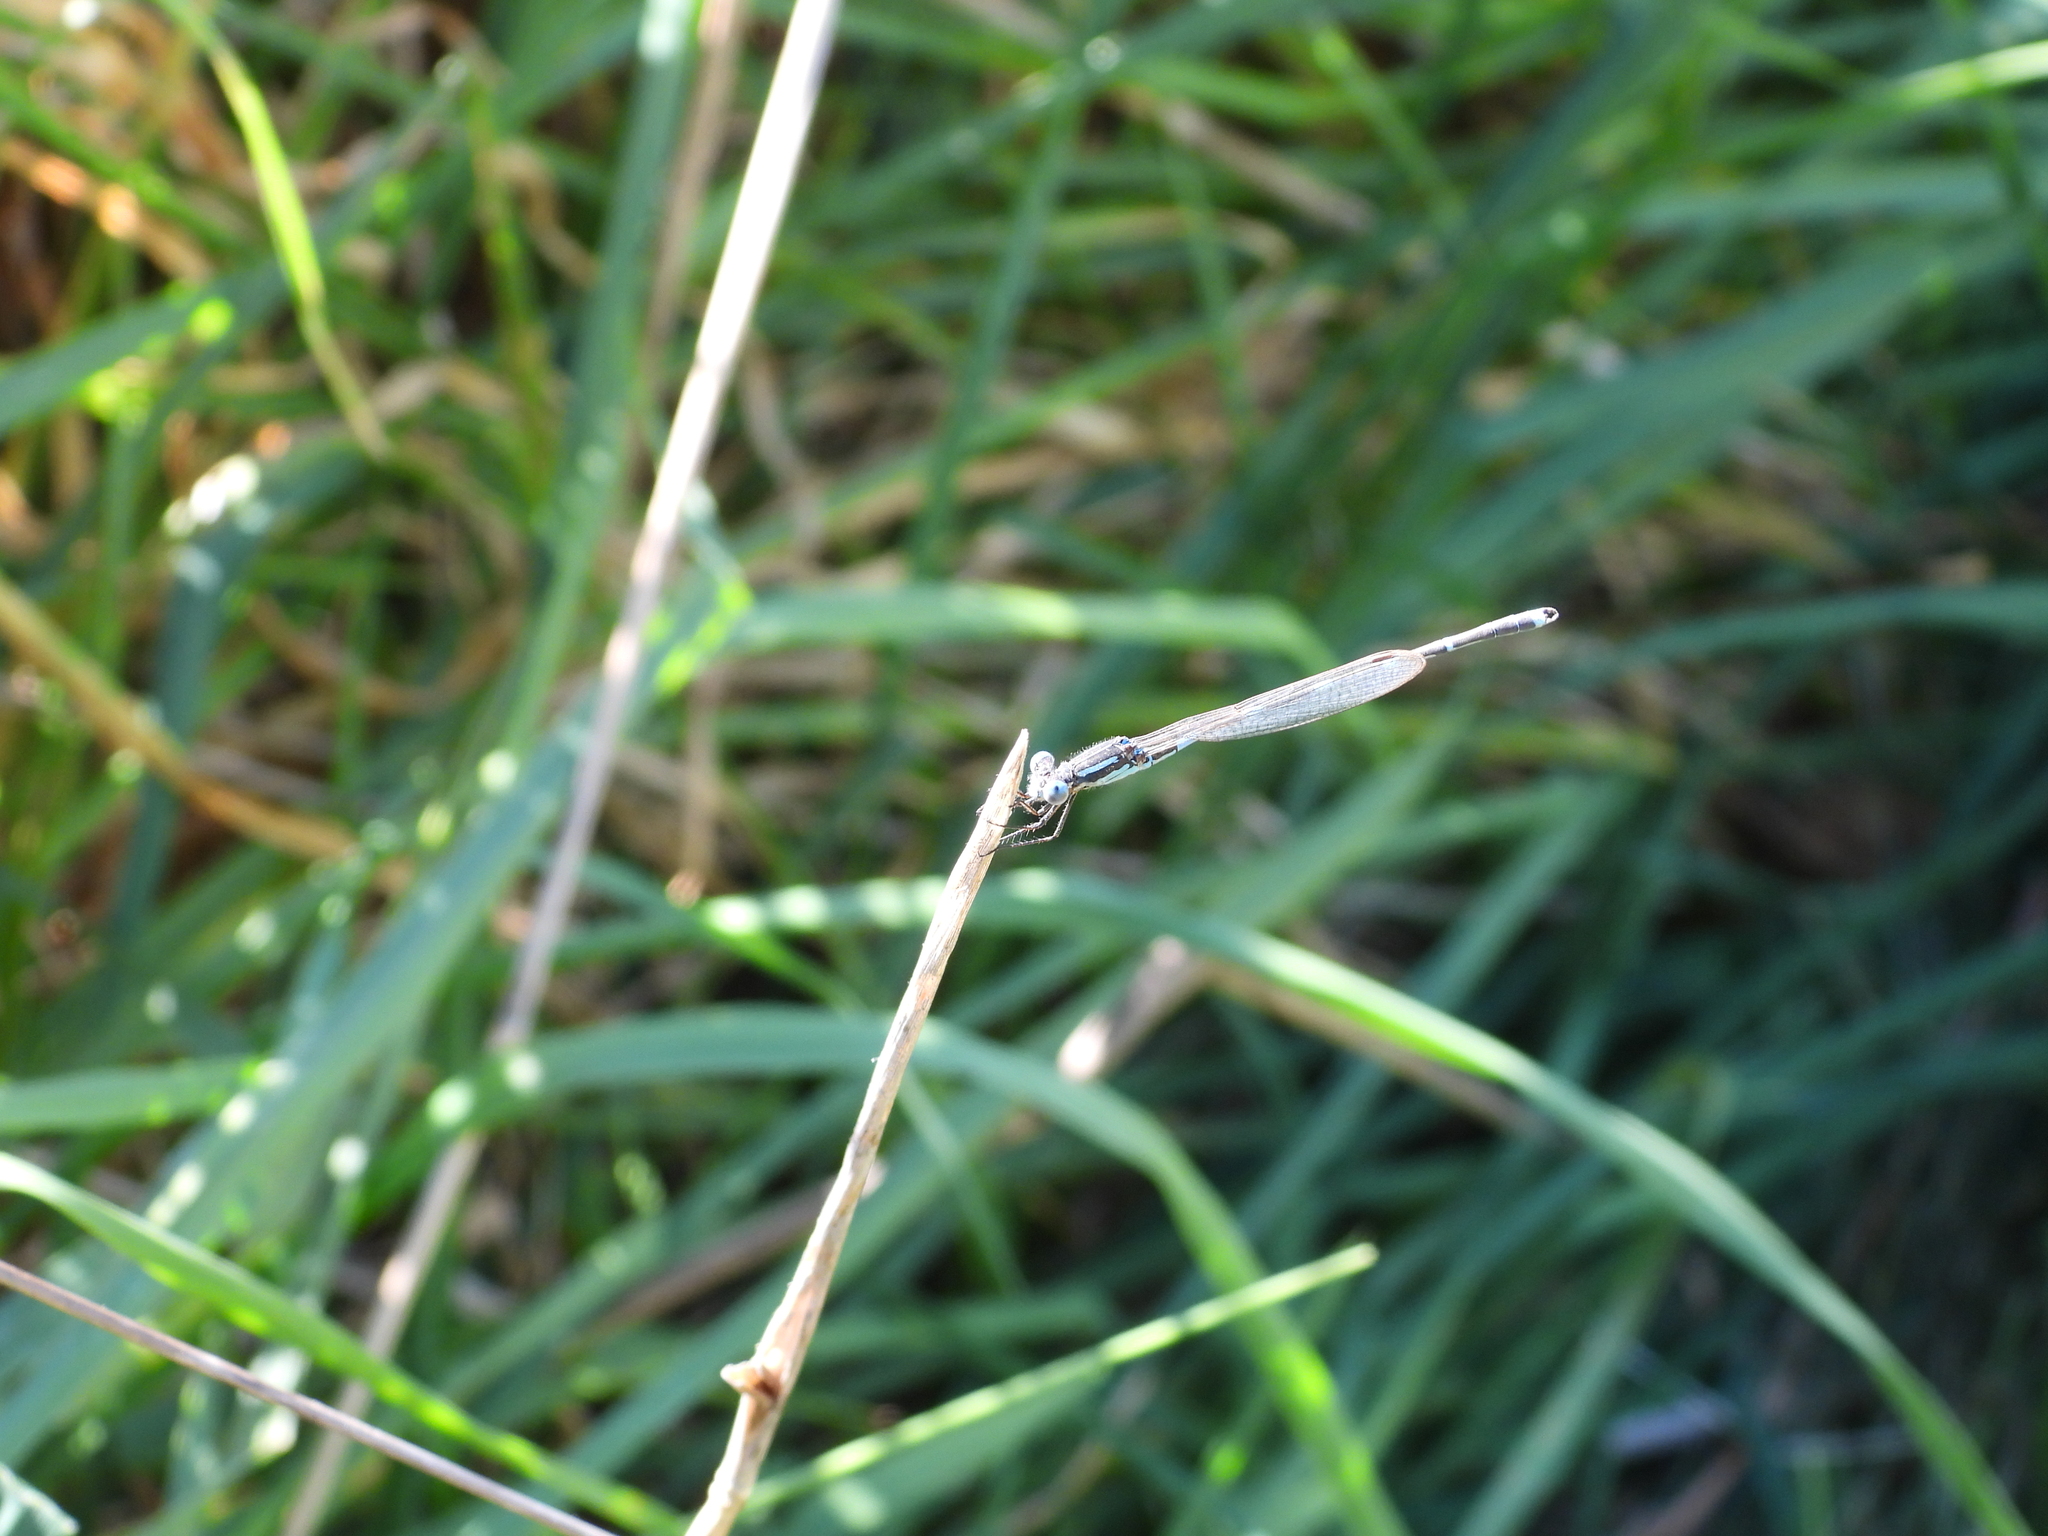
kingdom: Animalia
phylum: Arthropoda
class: Insecta
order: Odonata
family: Lestidae
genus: Austrolestes
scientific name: Austrolestes leda
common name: Wandering ringtail
